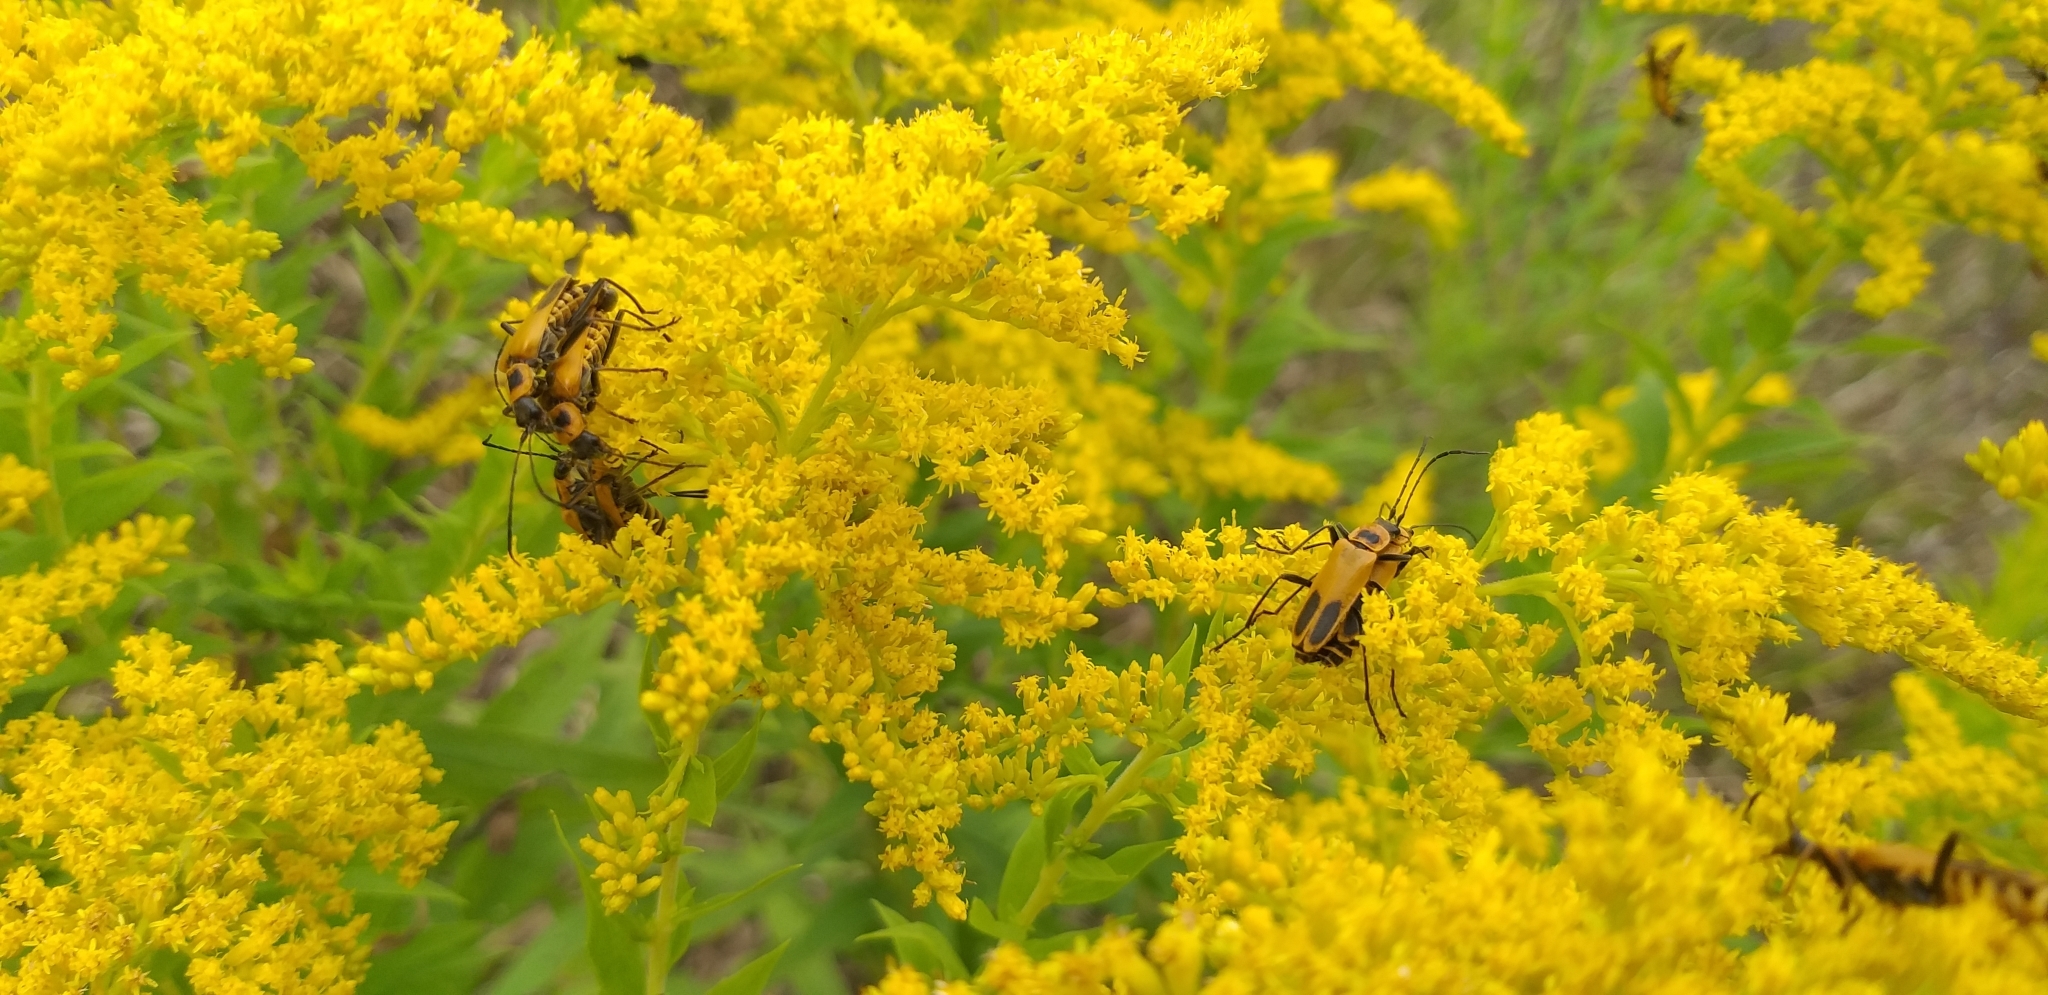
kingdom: Animalia
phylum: Arthropoda
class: Insecta
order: Coleoptera
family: Cantharidae
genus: Chauliognathus
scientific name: Chauliognathus pensylvanicus
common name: Goldenrod soldier beetle
